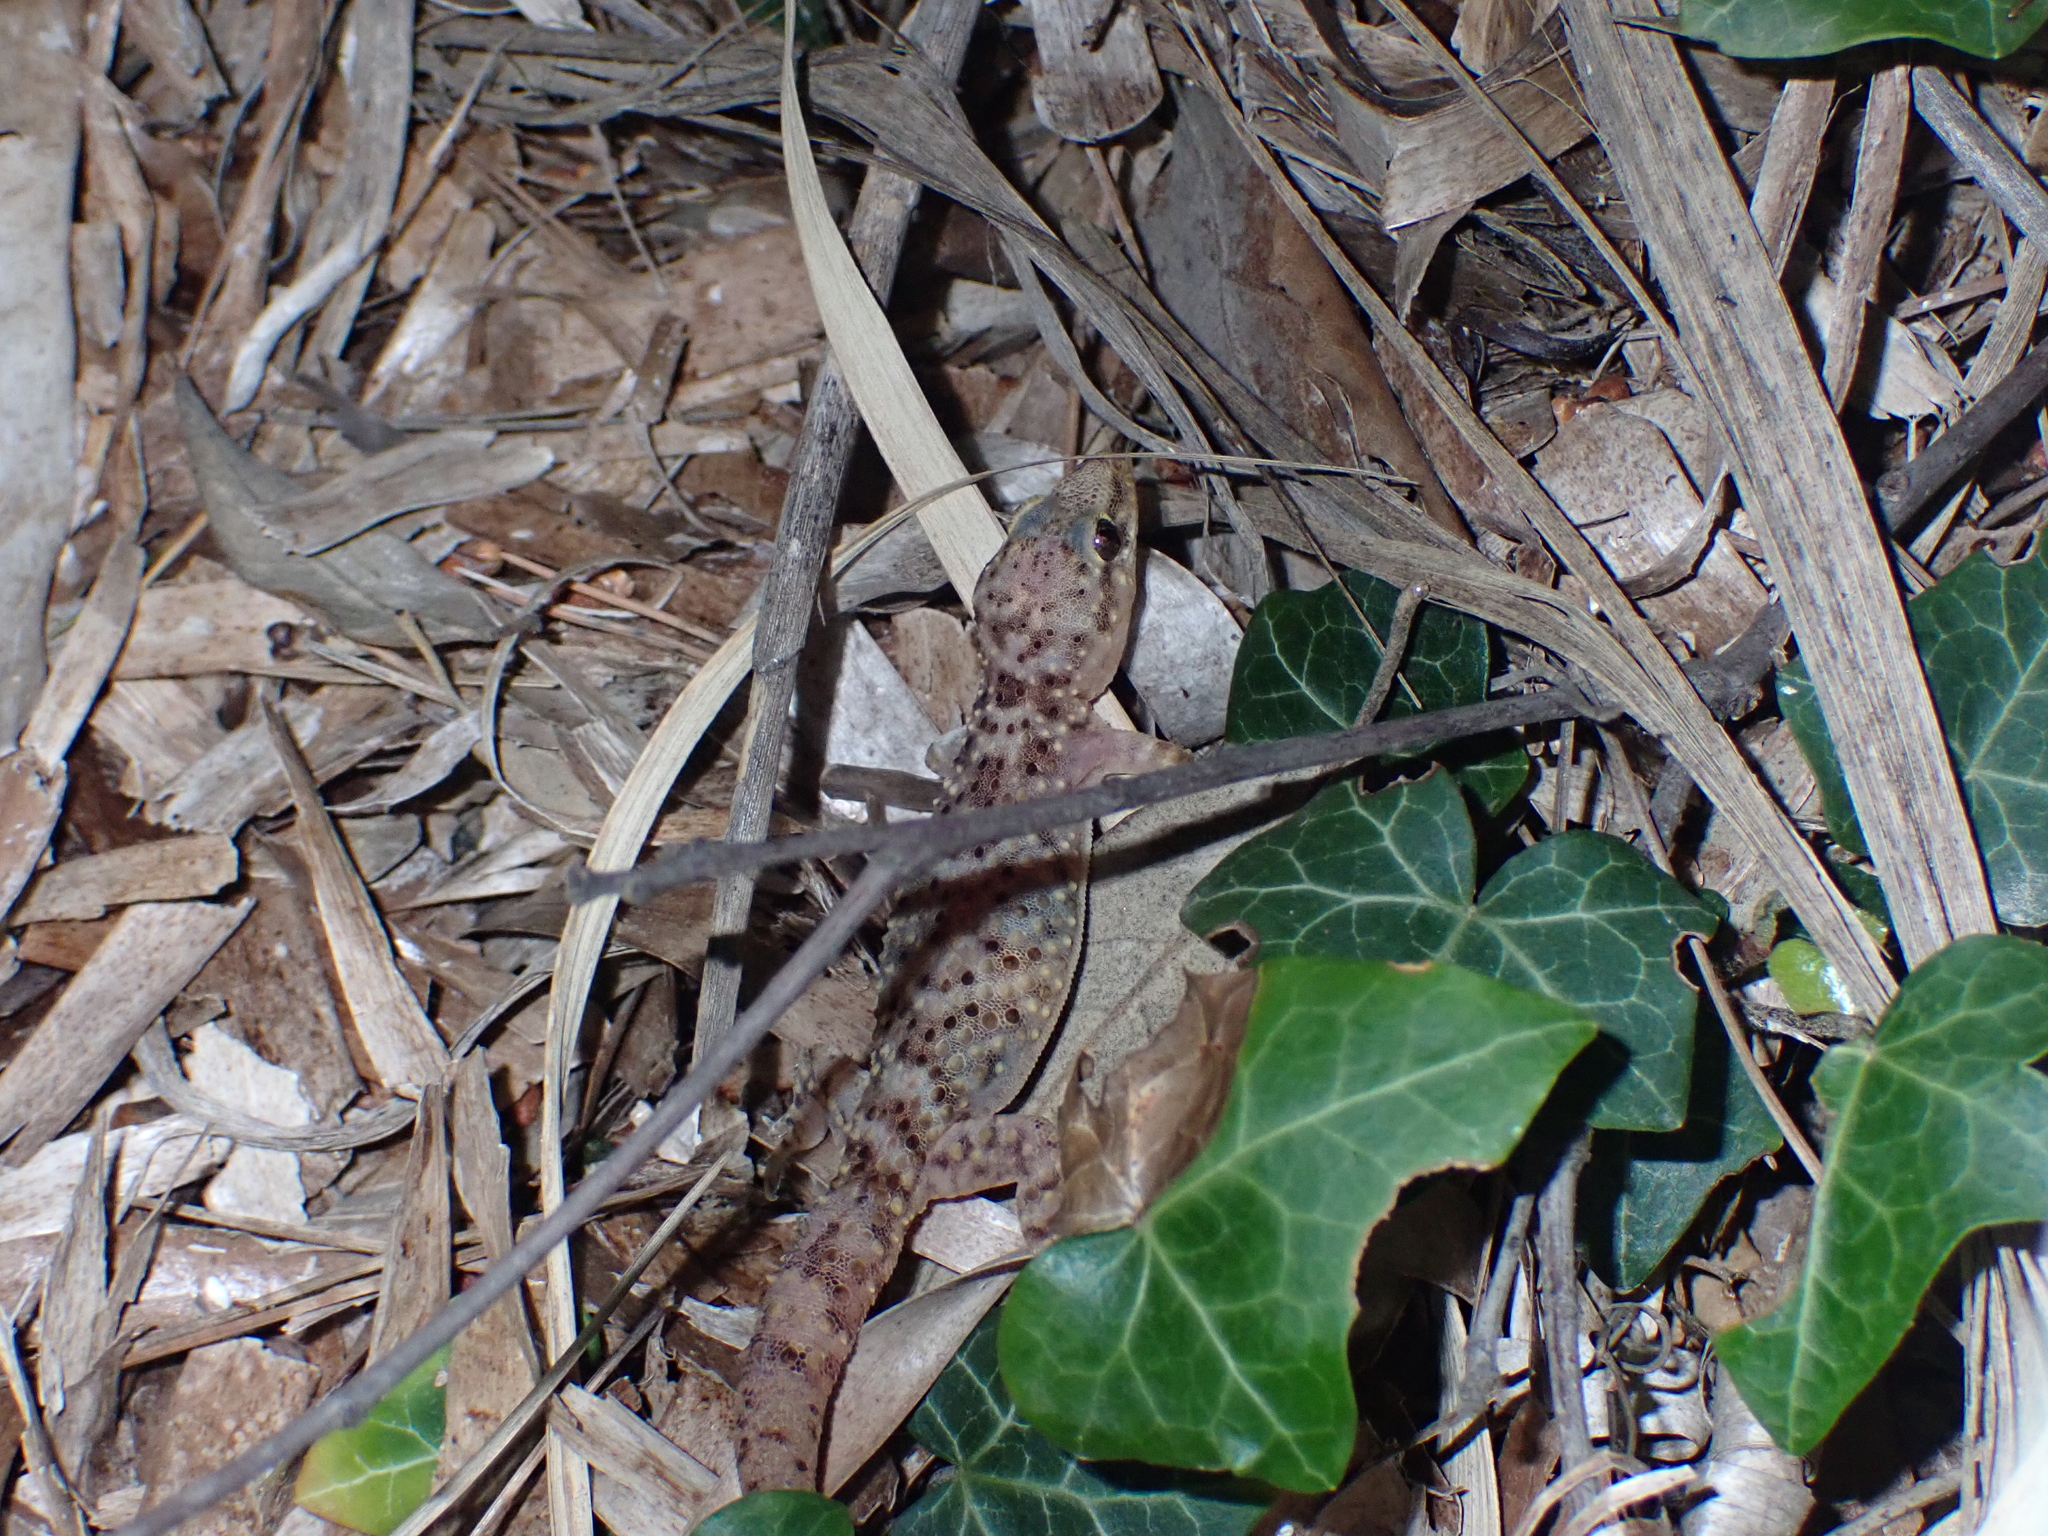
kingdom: Animalia
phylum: Chordata
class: Squamata
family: Gekkonidae
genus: Hemidactylus
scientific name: Hemidactylus turcicus
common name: Turkish gecko
